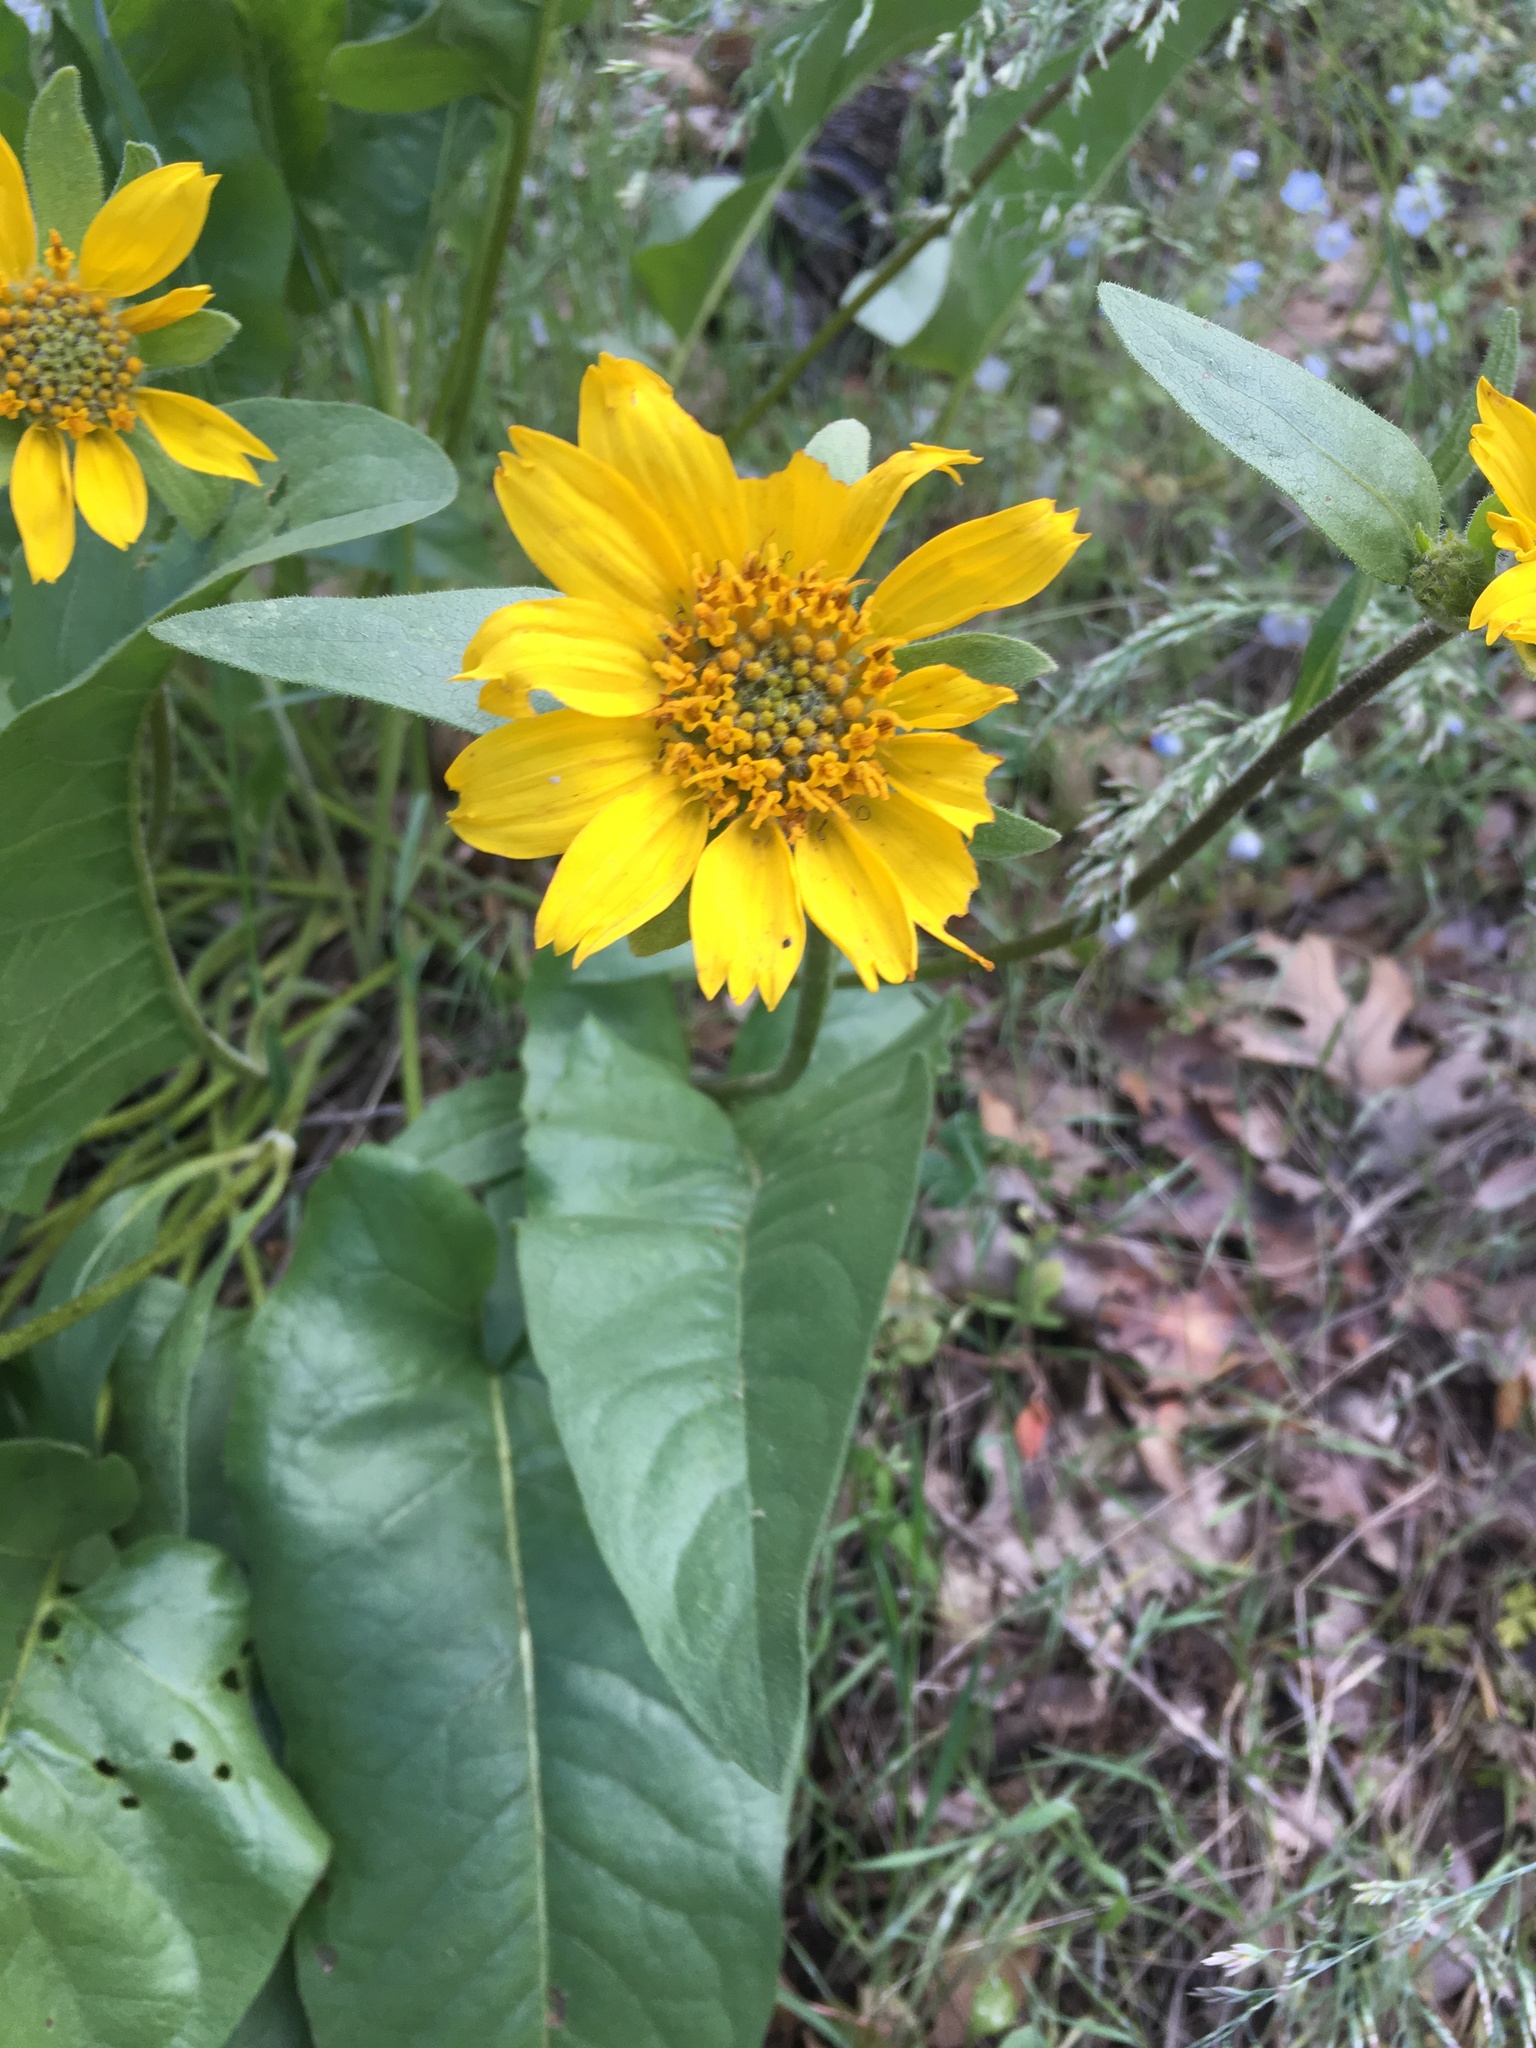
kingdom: Plantae
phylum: Tracheophyta
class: Magnoliopsida
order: Asterales
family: Asteraceae
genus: Balsamorhiza
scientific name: Balsamorhiza deltoidea
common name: Deltoid balsamroot
